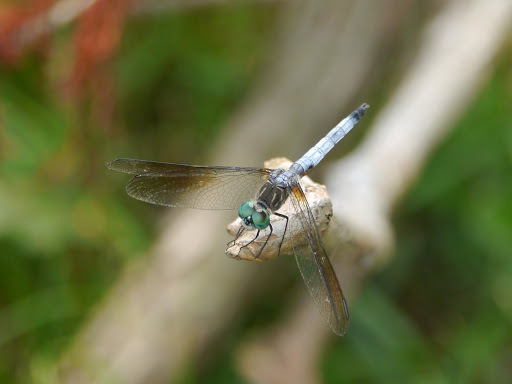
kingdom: Animalia
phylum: Arthropoda
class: Insecta
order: Odonata
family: Libellulidae
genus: Pachydiplax
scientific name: Pachydiplax longipennis
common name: Blue dasher
